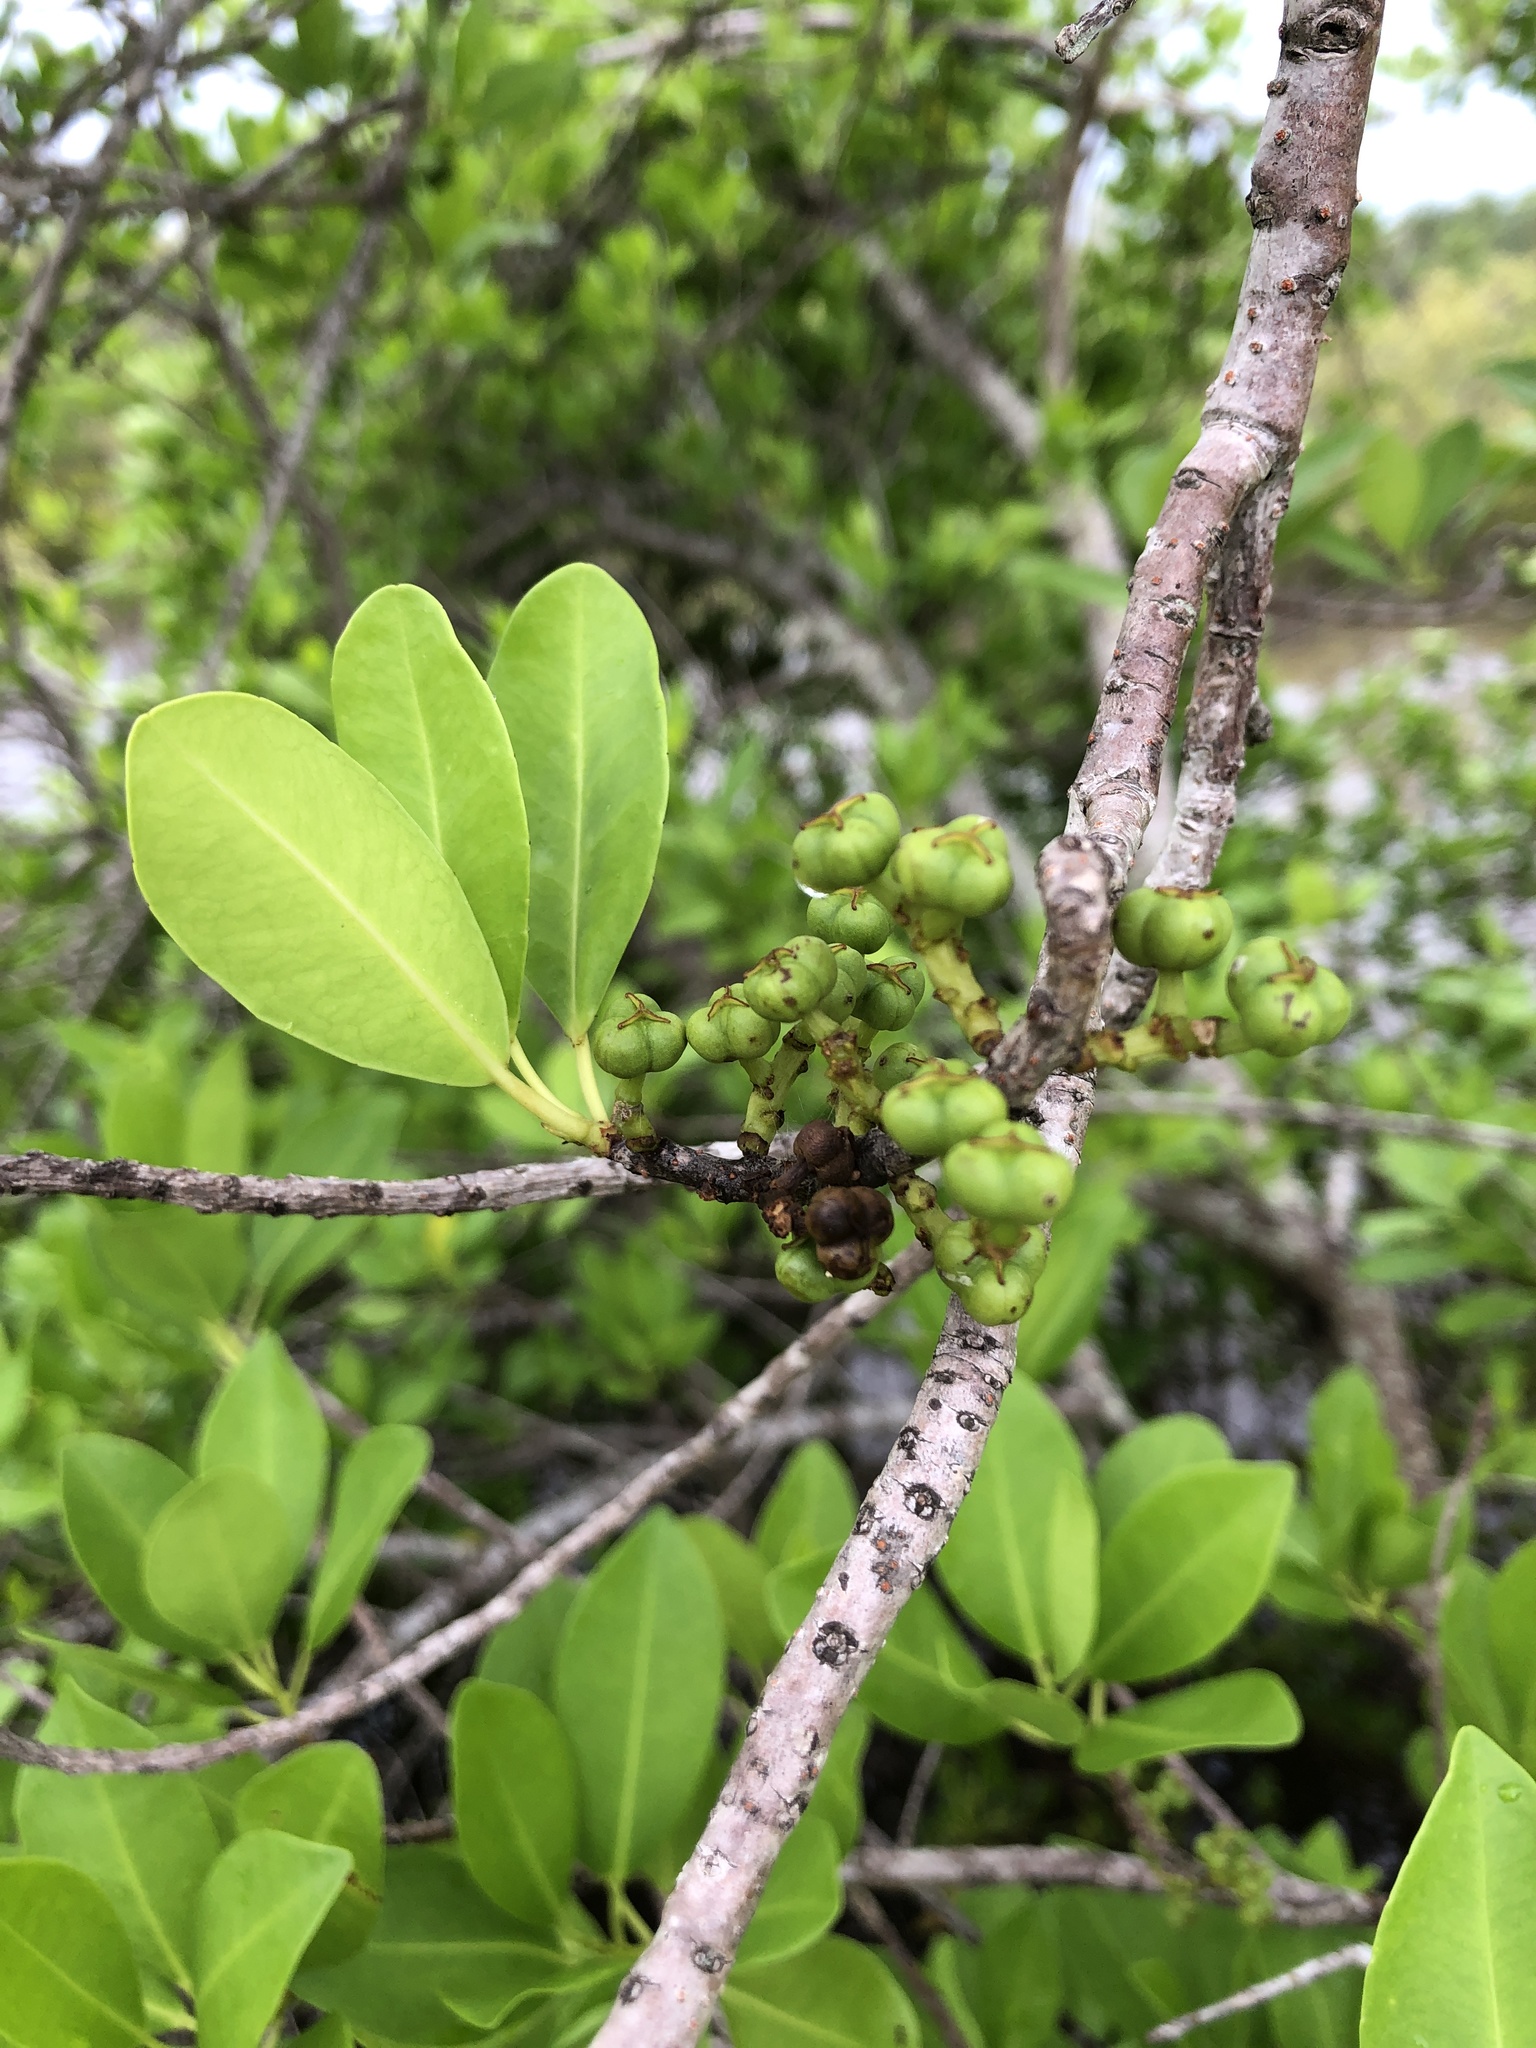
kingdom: Plantae
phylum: Tracheophyta
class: Magnoliopsida
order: Malpighiales
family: Euphorbiaceae
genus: Excoecaria
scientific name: Excoecaria agallocha
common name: River poisontree
